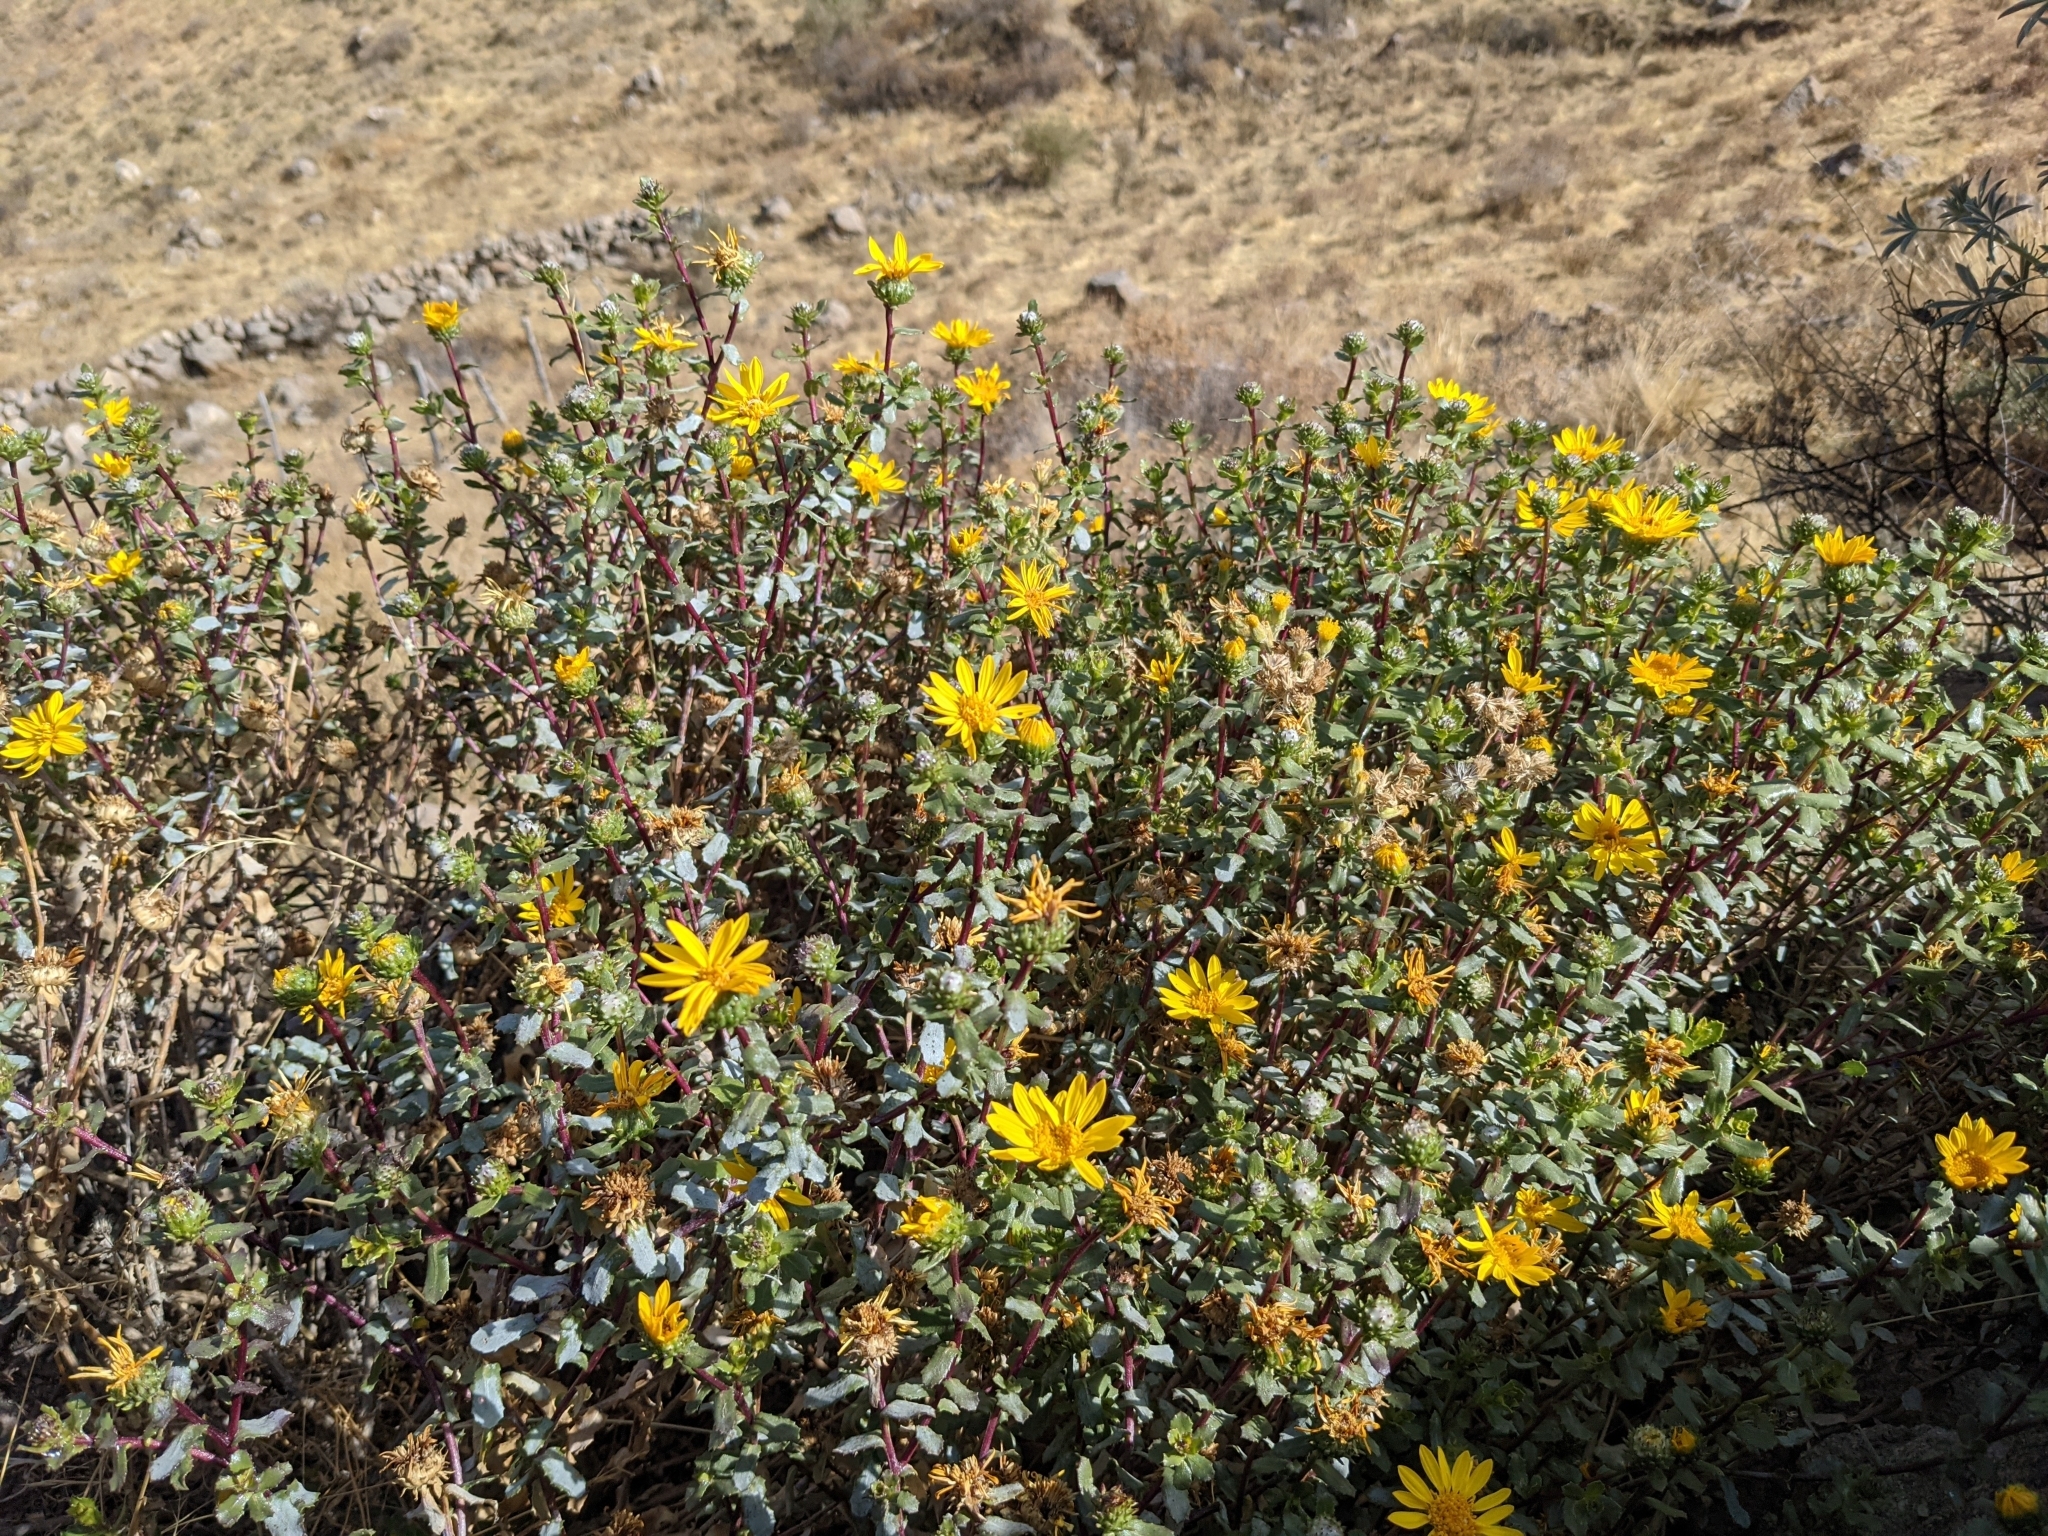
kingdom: Plantae
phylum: Tracheophyta
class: Magnoliopsida
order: Asterales
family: Asteraceae
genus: Grindelia
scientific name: Grindelia tarapacana
